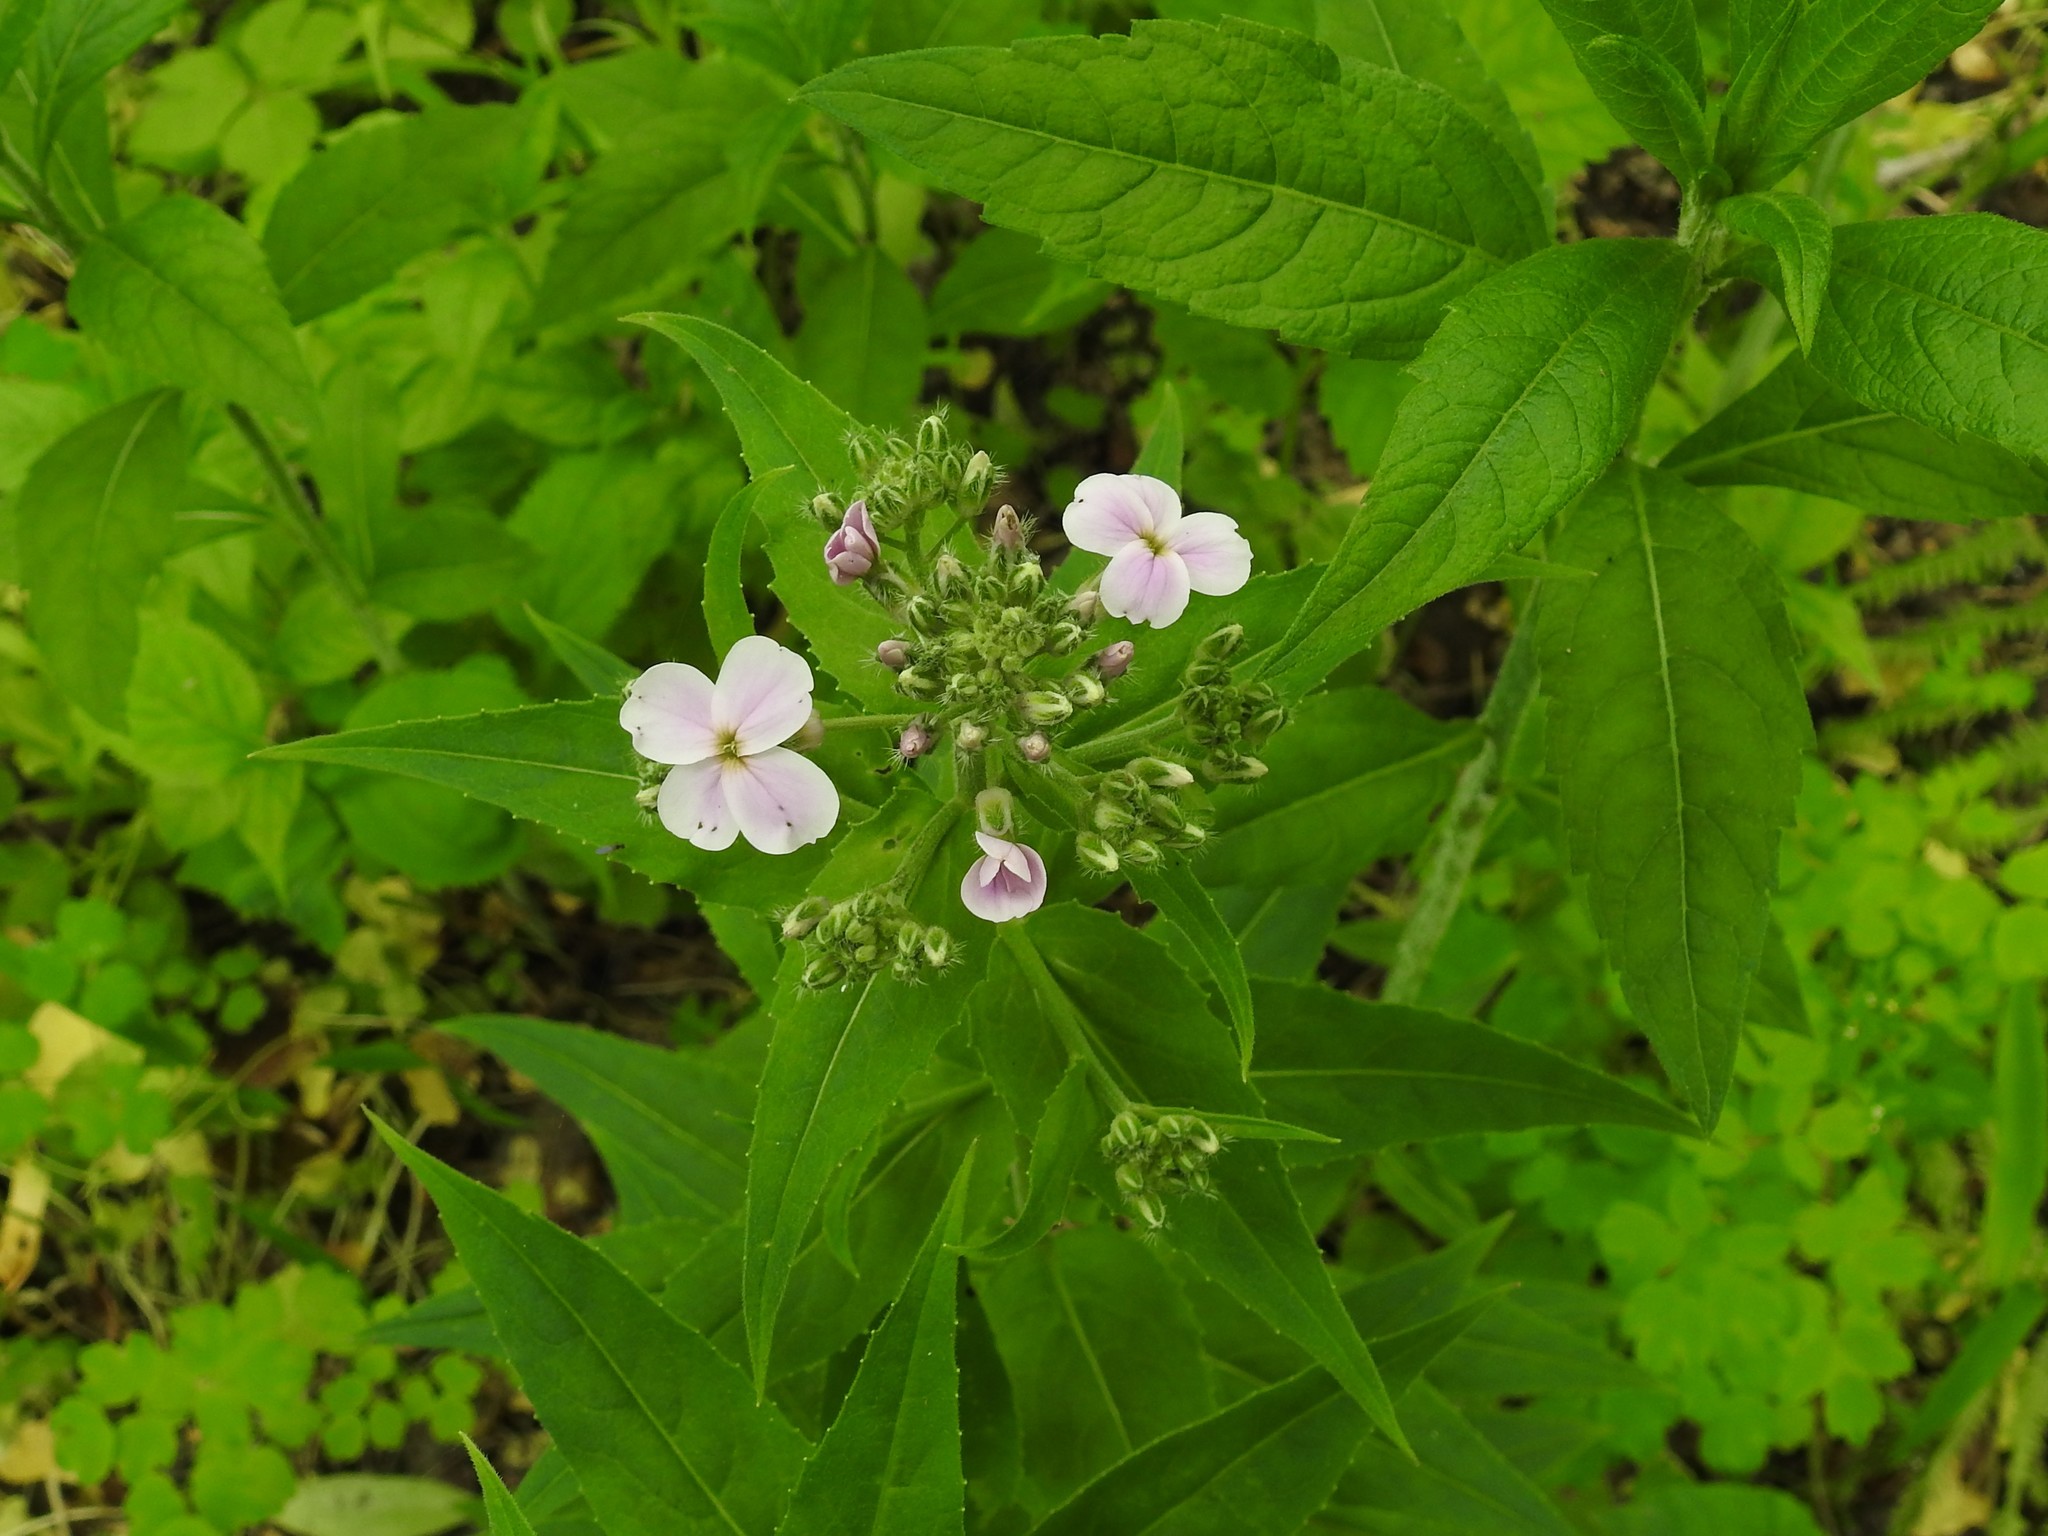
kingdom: Plantae
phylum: Tracheophyta
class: Magnoliopsida
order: Brassicales
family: Brassicaceae
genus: Hesperis
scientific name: Hesperis matronalis
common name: Dame's-violet
